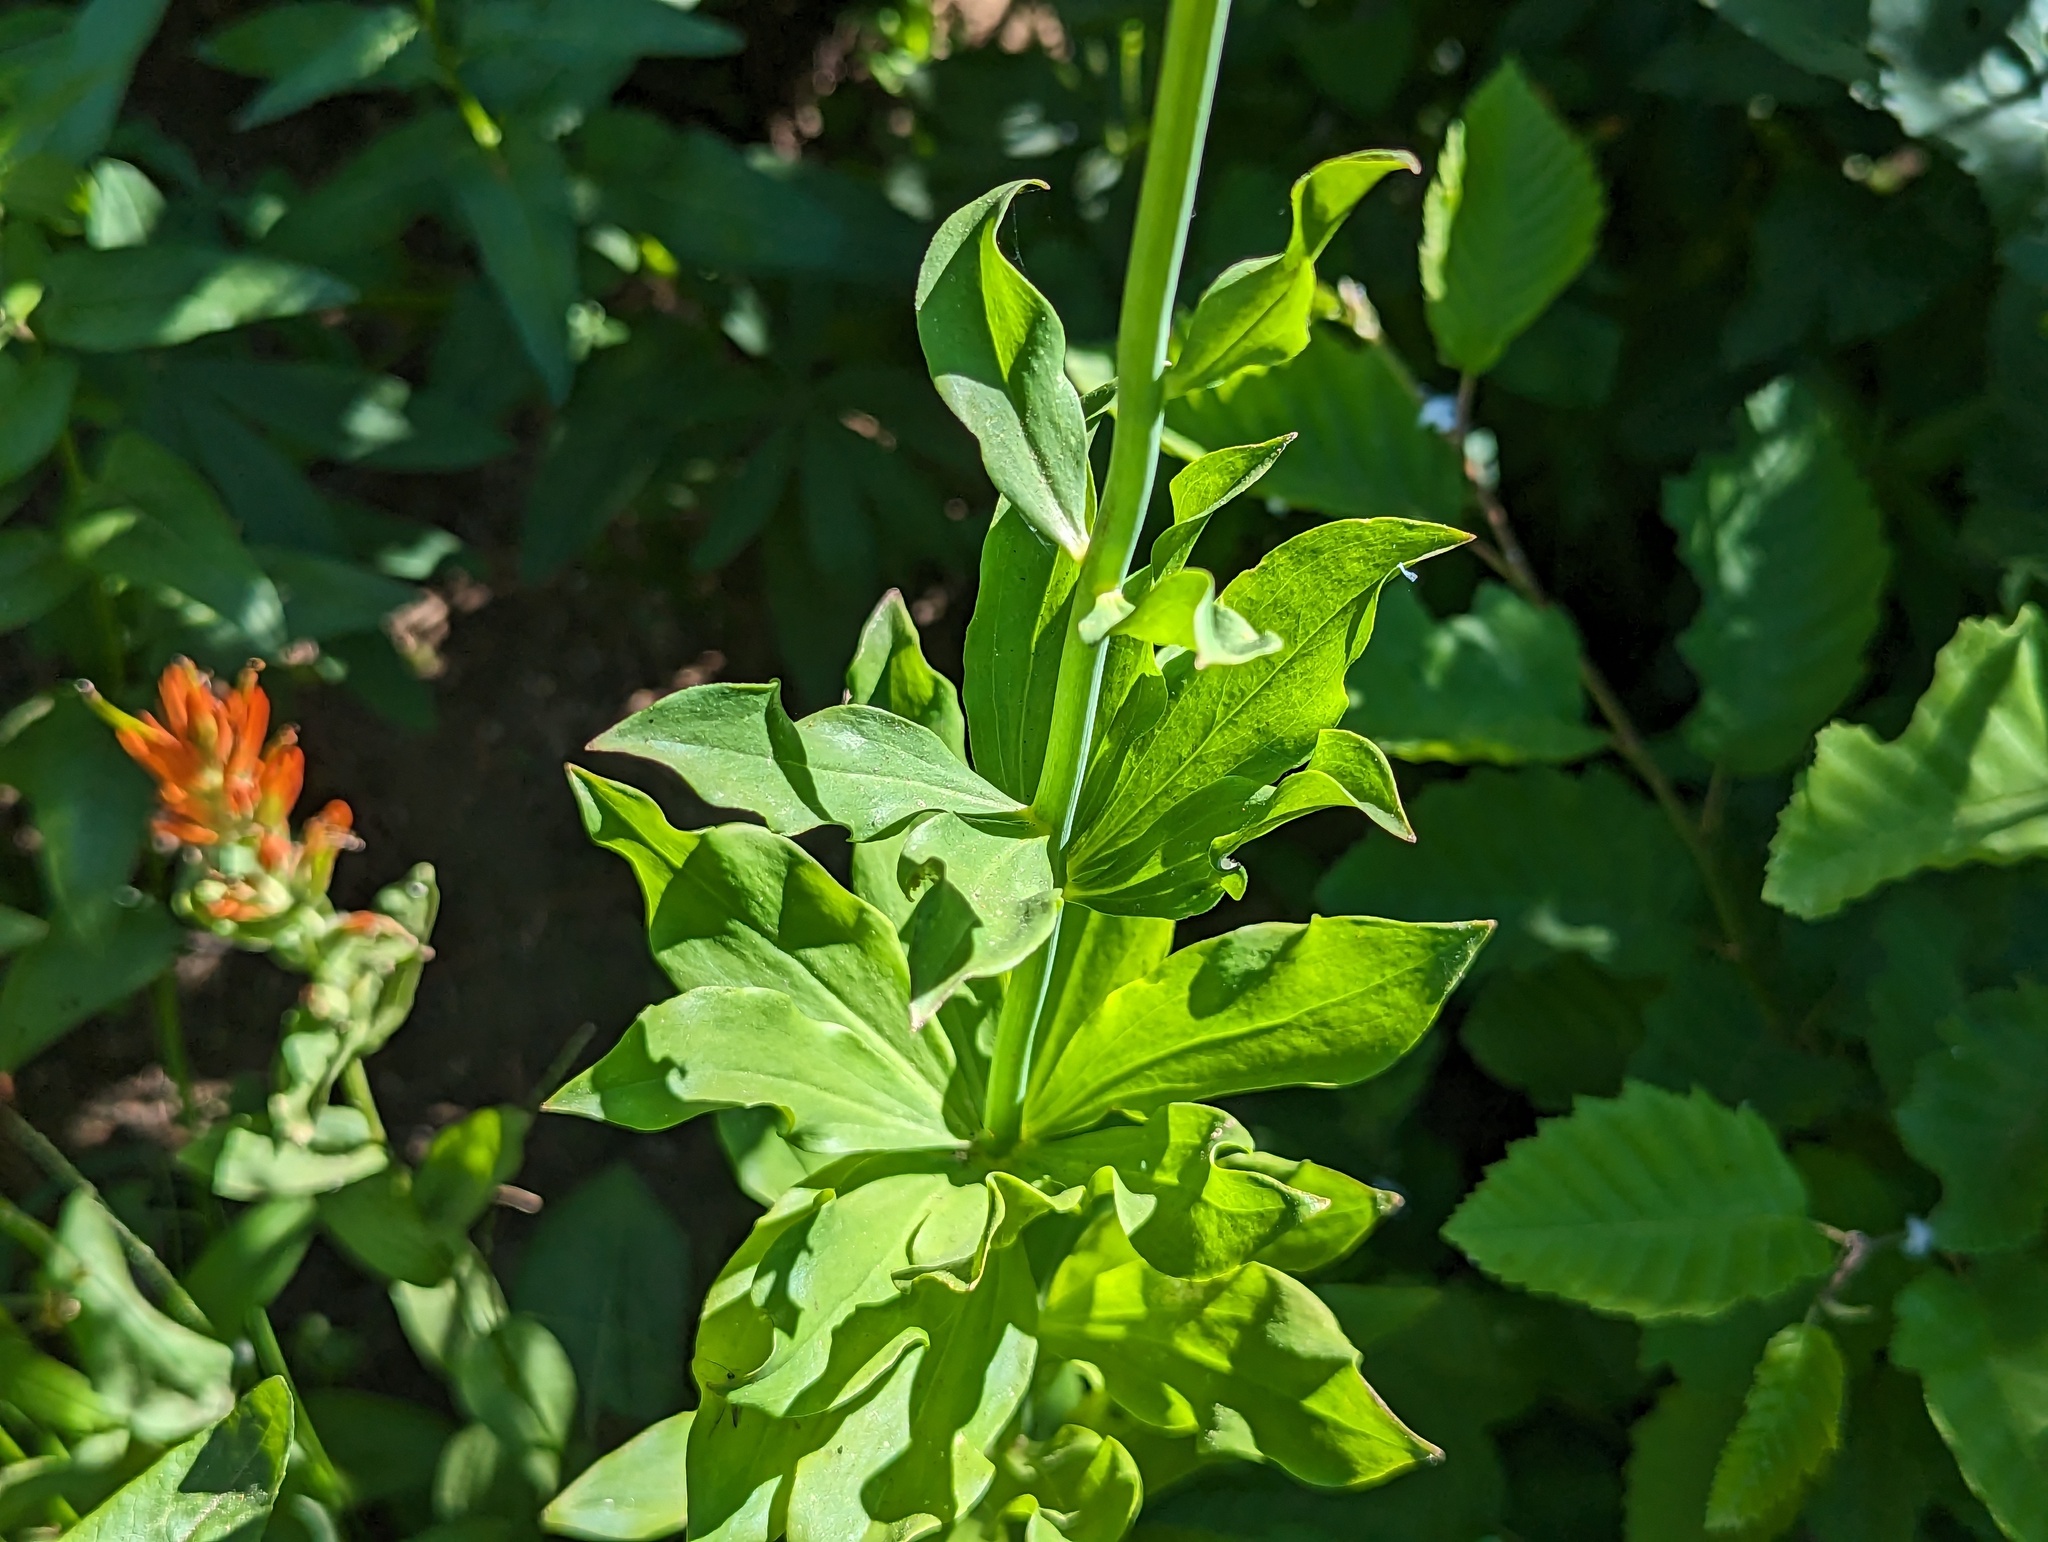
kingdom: Plantae
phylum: Tracheophyta
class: Liliopsida
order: Liliales
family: Liliaceae
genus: Lilium
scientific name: Lilium parvum
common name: Alpine lily
